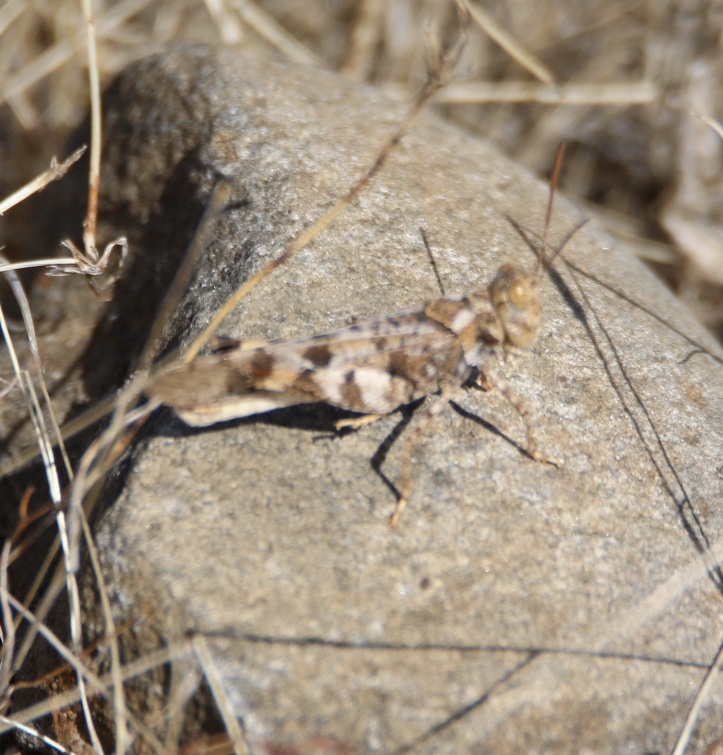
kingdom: Animalia
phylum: Arthropoda
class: Insecta
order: Orthoptera
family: Acrididae
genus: Dissosteira
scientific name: Dissosteira pictipennis
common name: California rose-winged grasshopper
